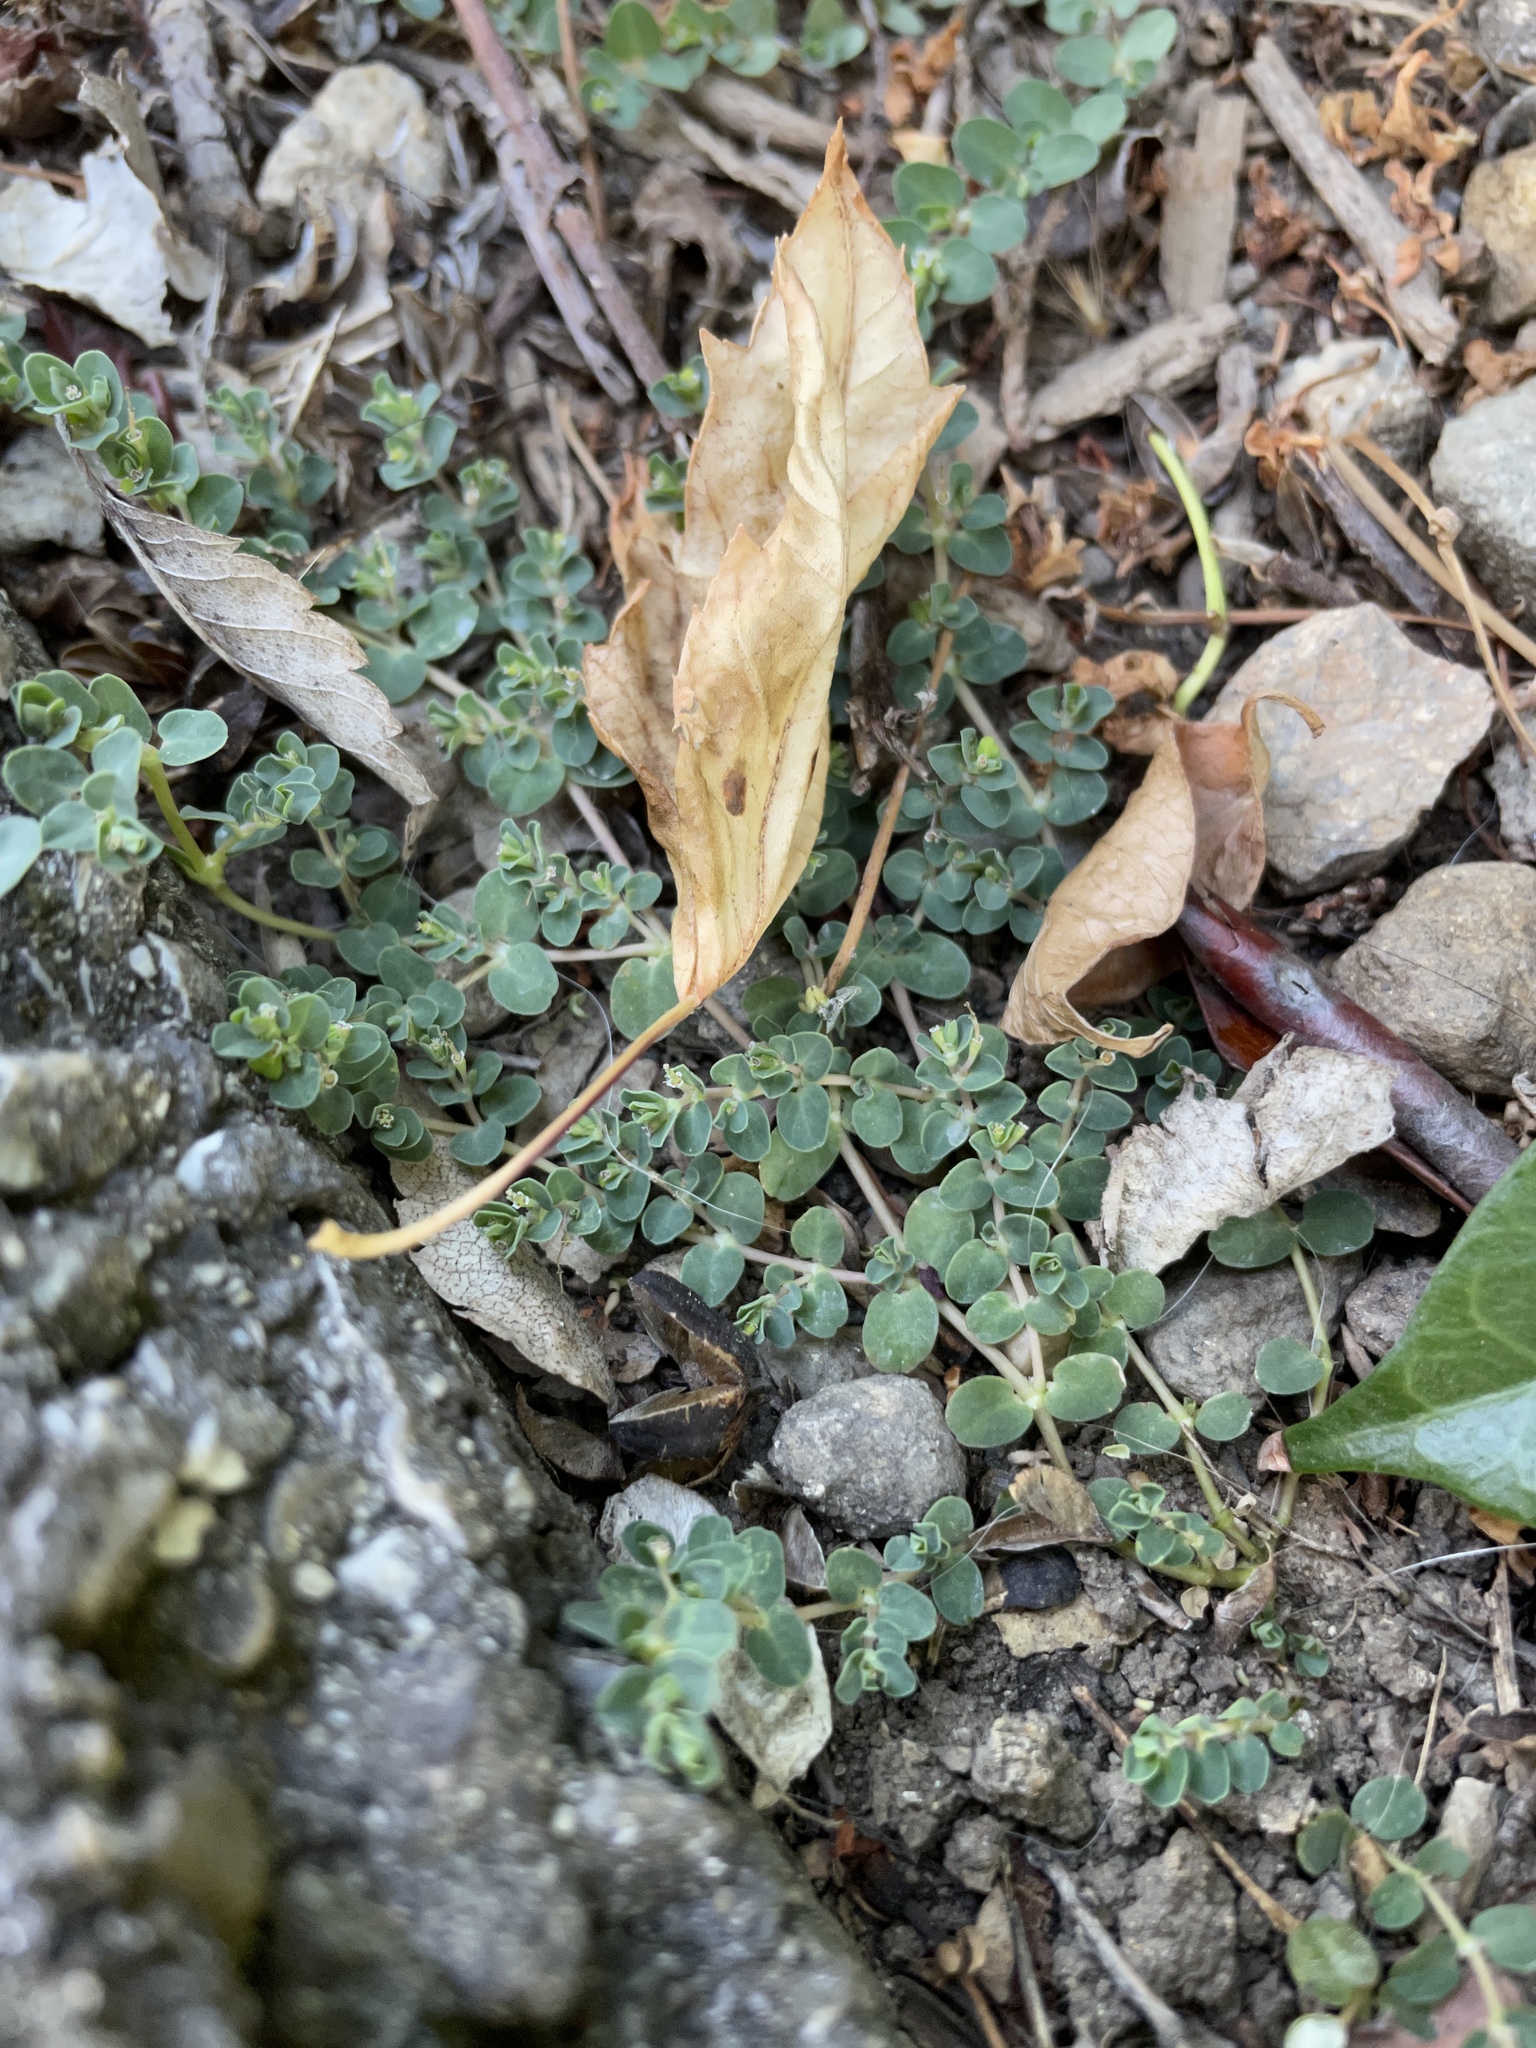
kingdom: Plantae
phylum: Tracheophyta
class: Magnoliopsida
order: Malpighiales
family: Euphorbiaceae
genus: Euphorbia
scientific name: Euphorbia serpens
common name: Matted sandmat
